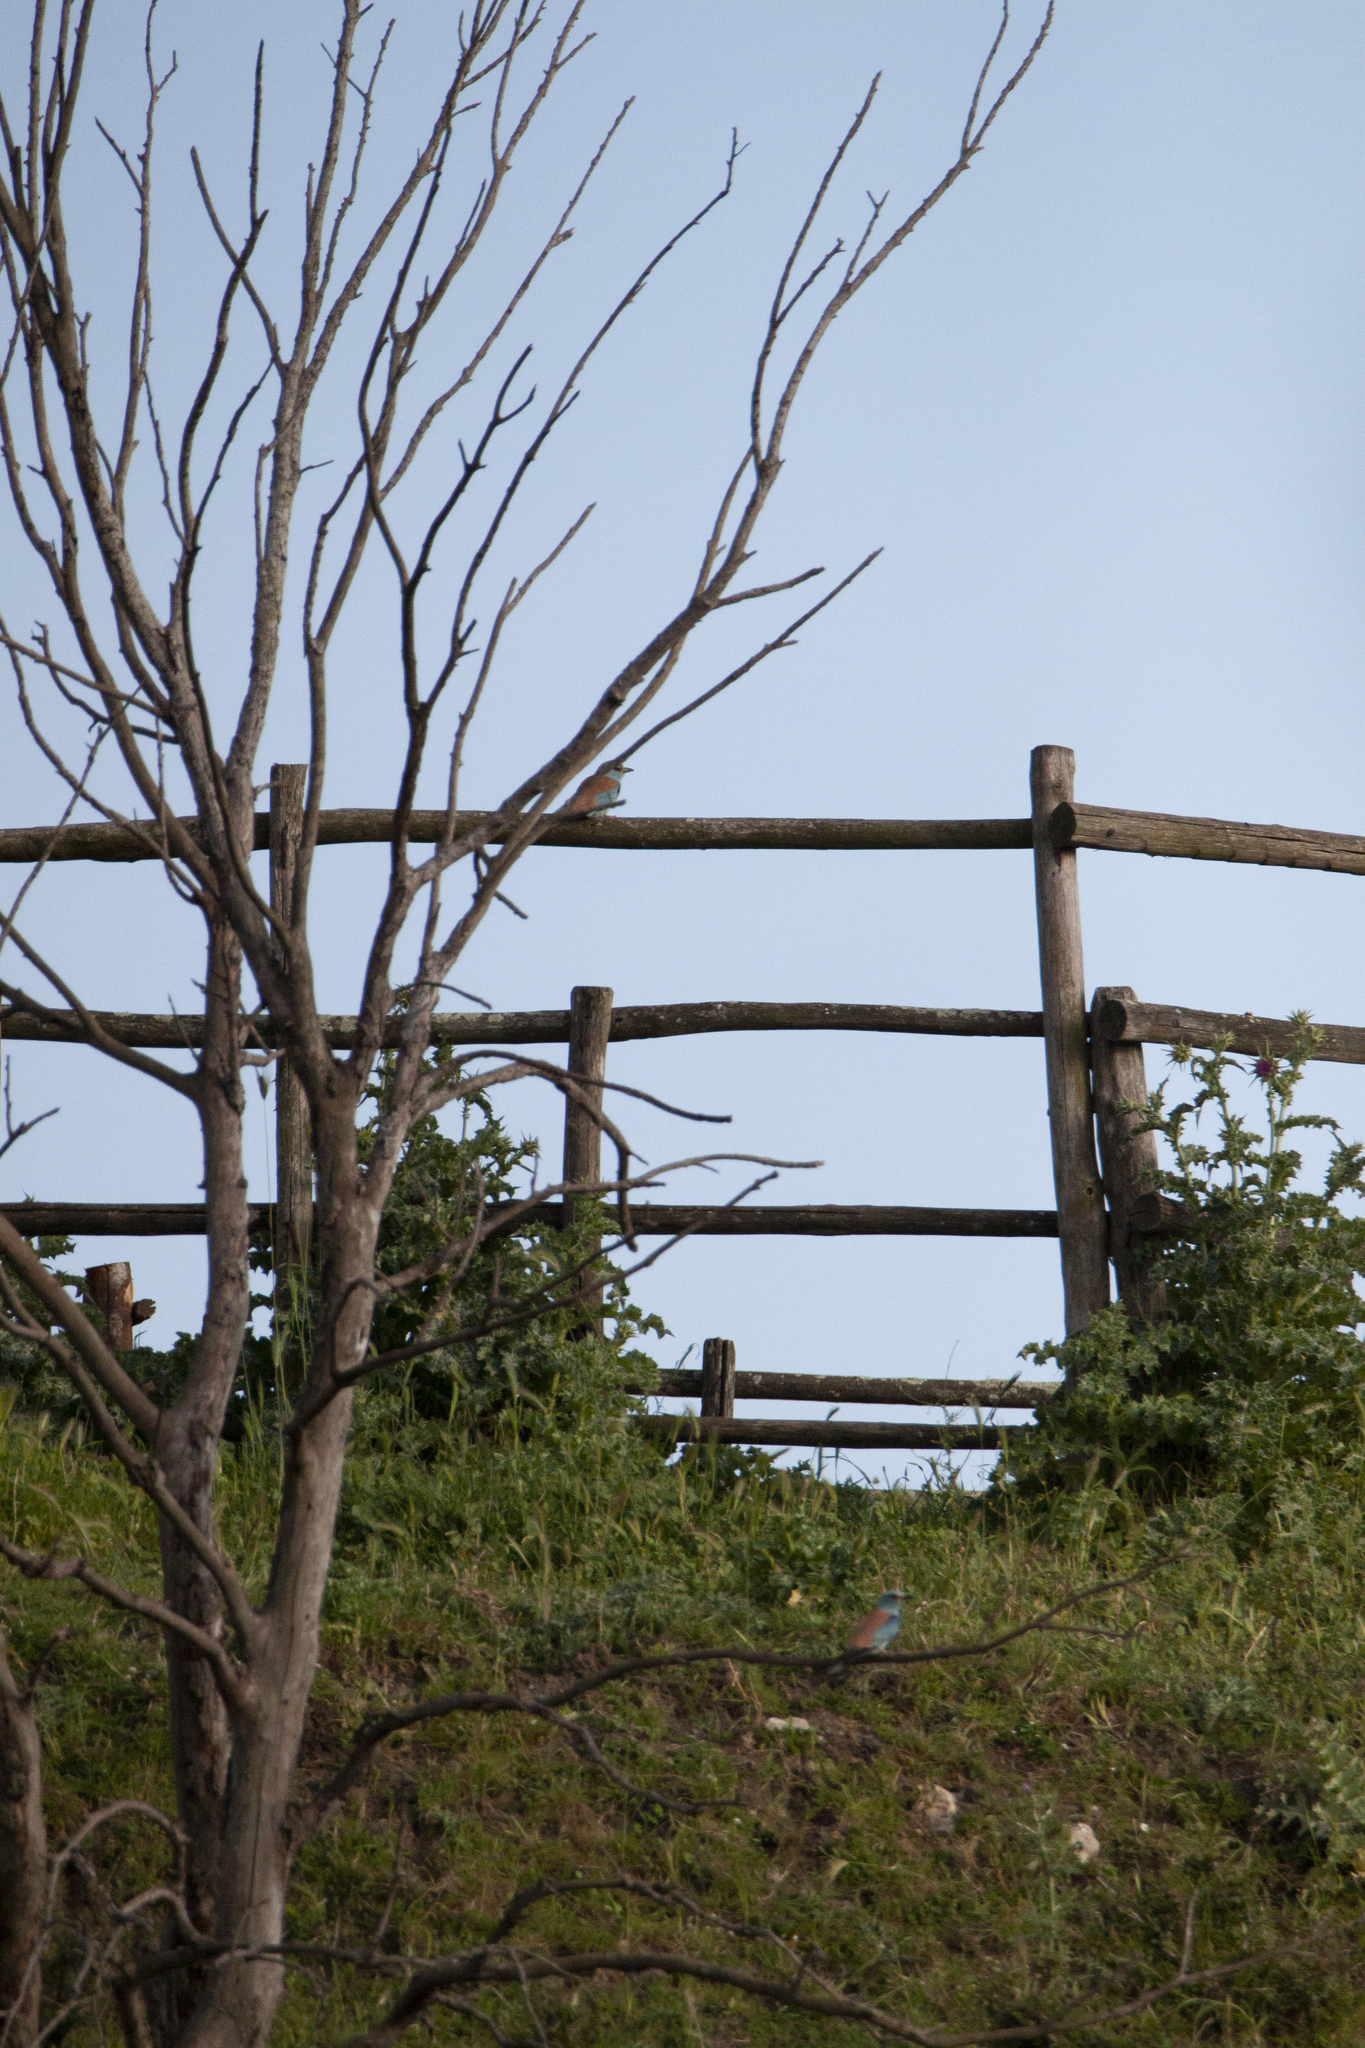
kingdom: Animalia
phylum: Chordata
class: Aves
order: Coraciiformes
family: Coraciidae
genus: Coracias
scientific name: Coracias garrulus
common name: European roller
